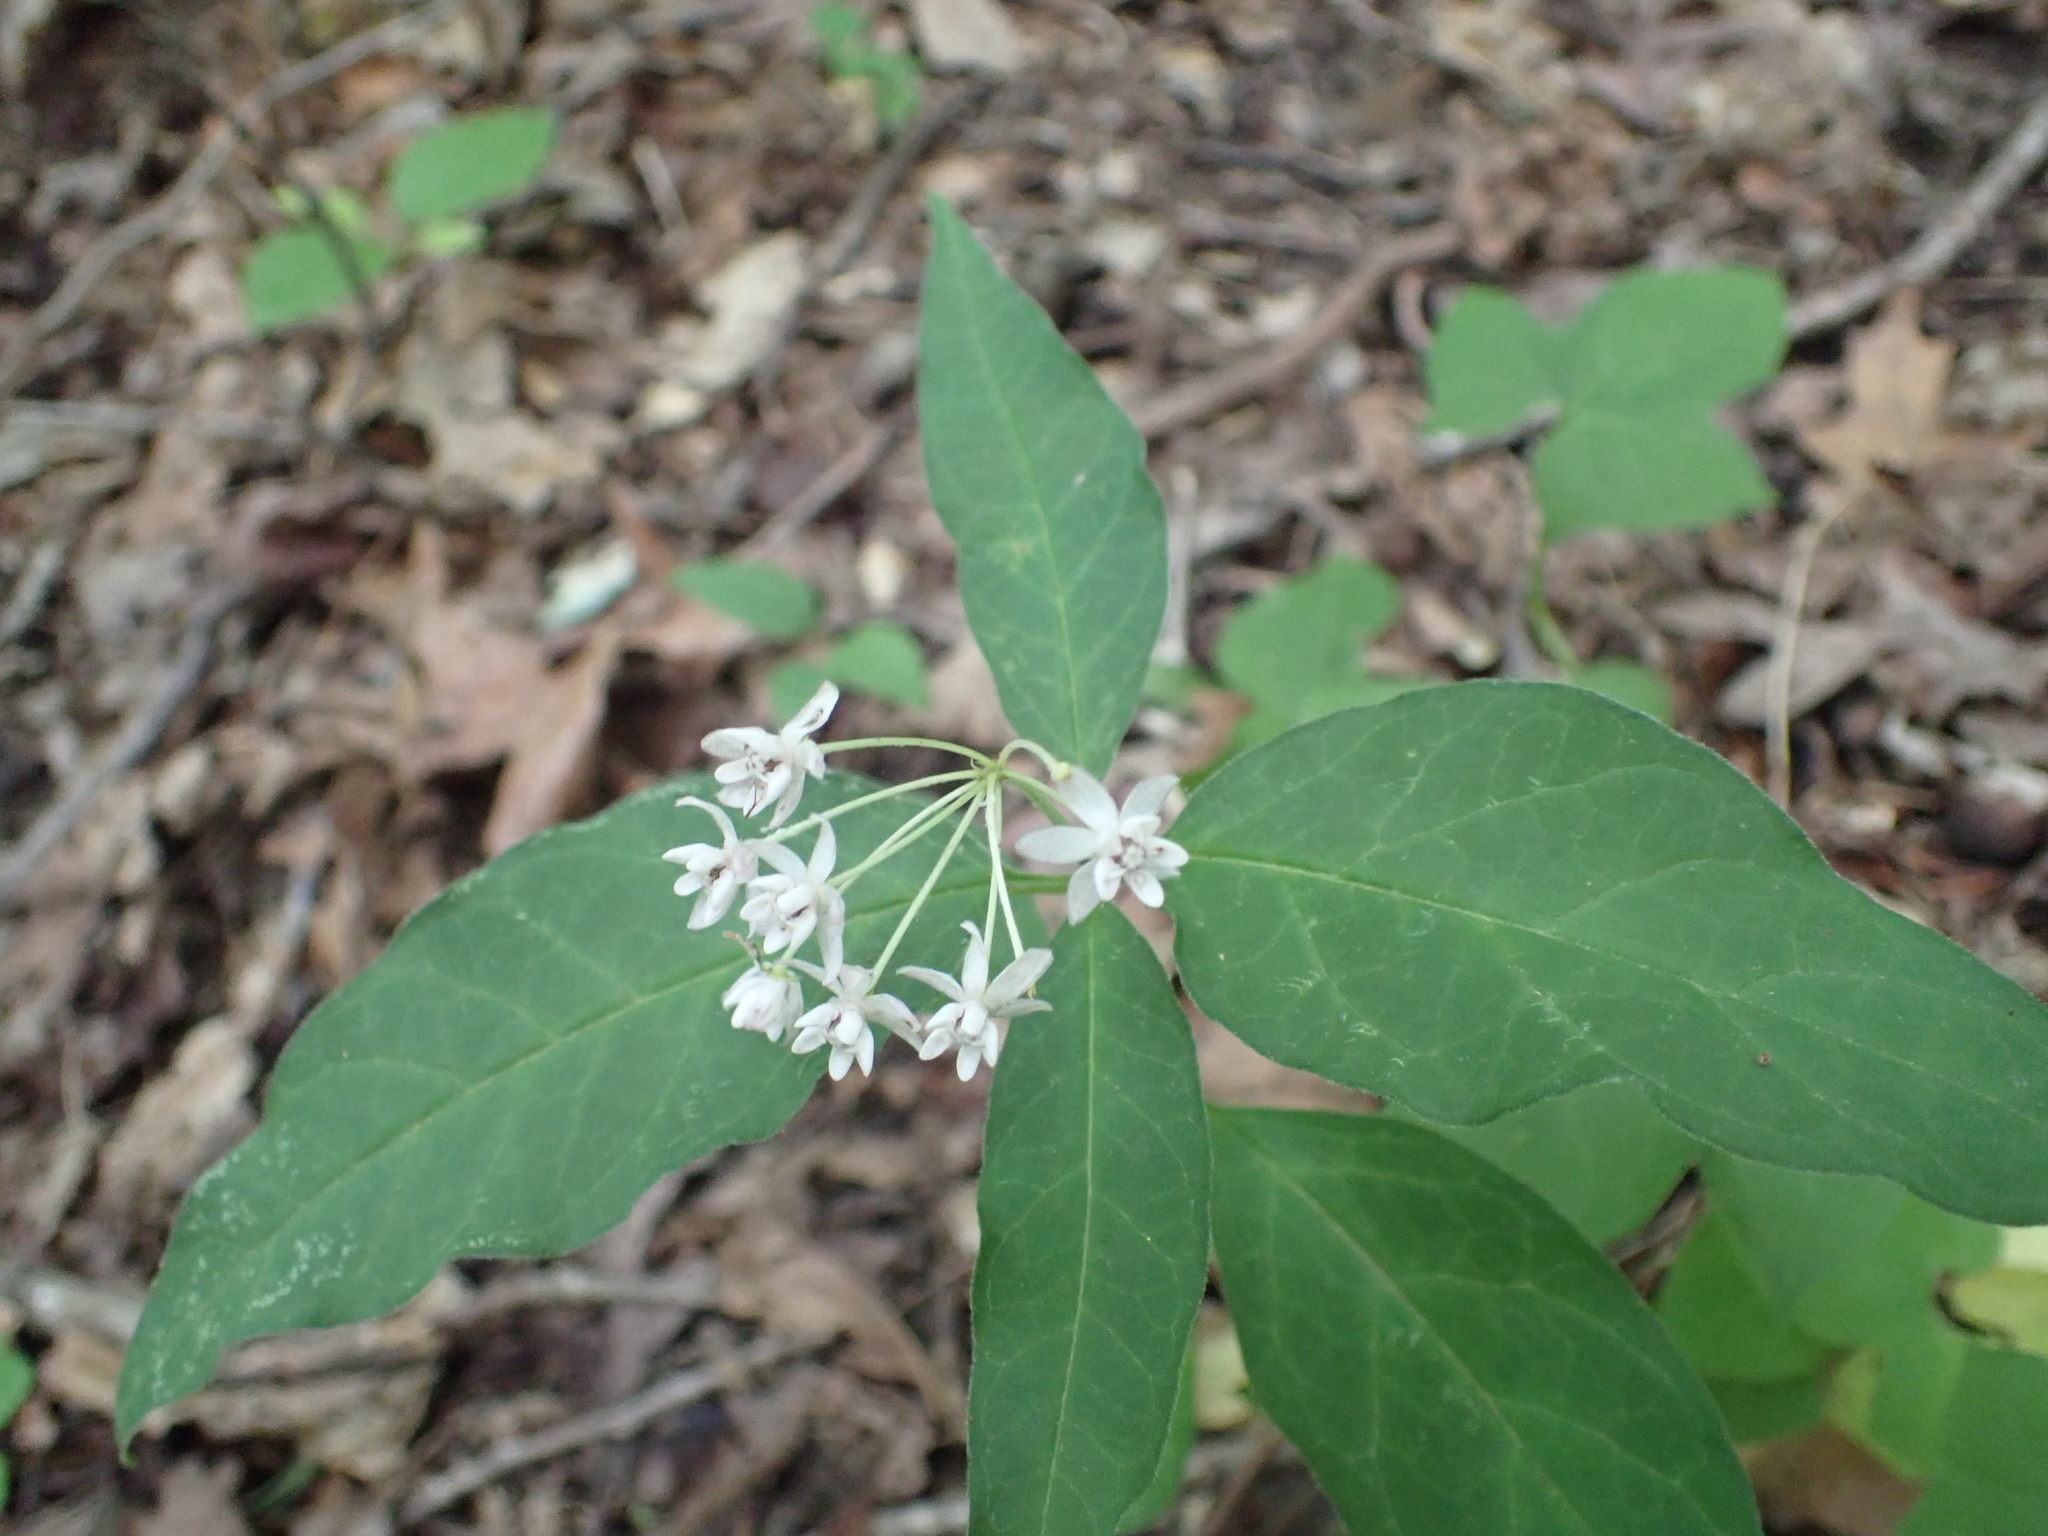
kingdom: Plantae
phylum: Tracheophyta
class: Magnoliopsida
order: Gentianales
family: Apocynaceae
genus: Asclepias
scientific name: Asclepias quadrifolia
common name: Whorled milkweed
